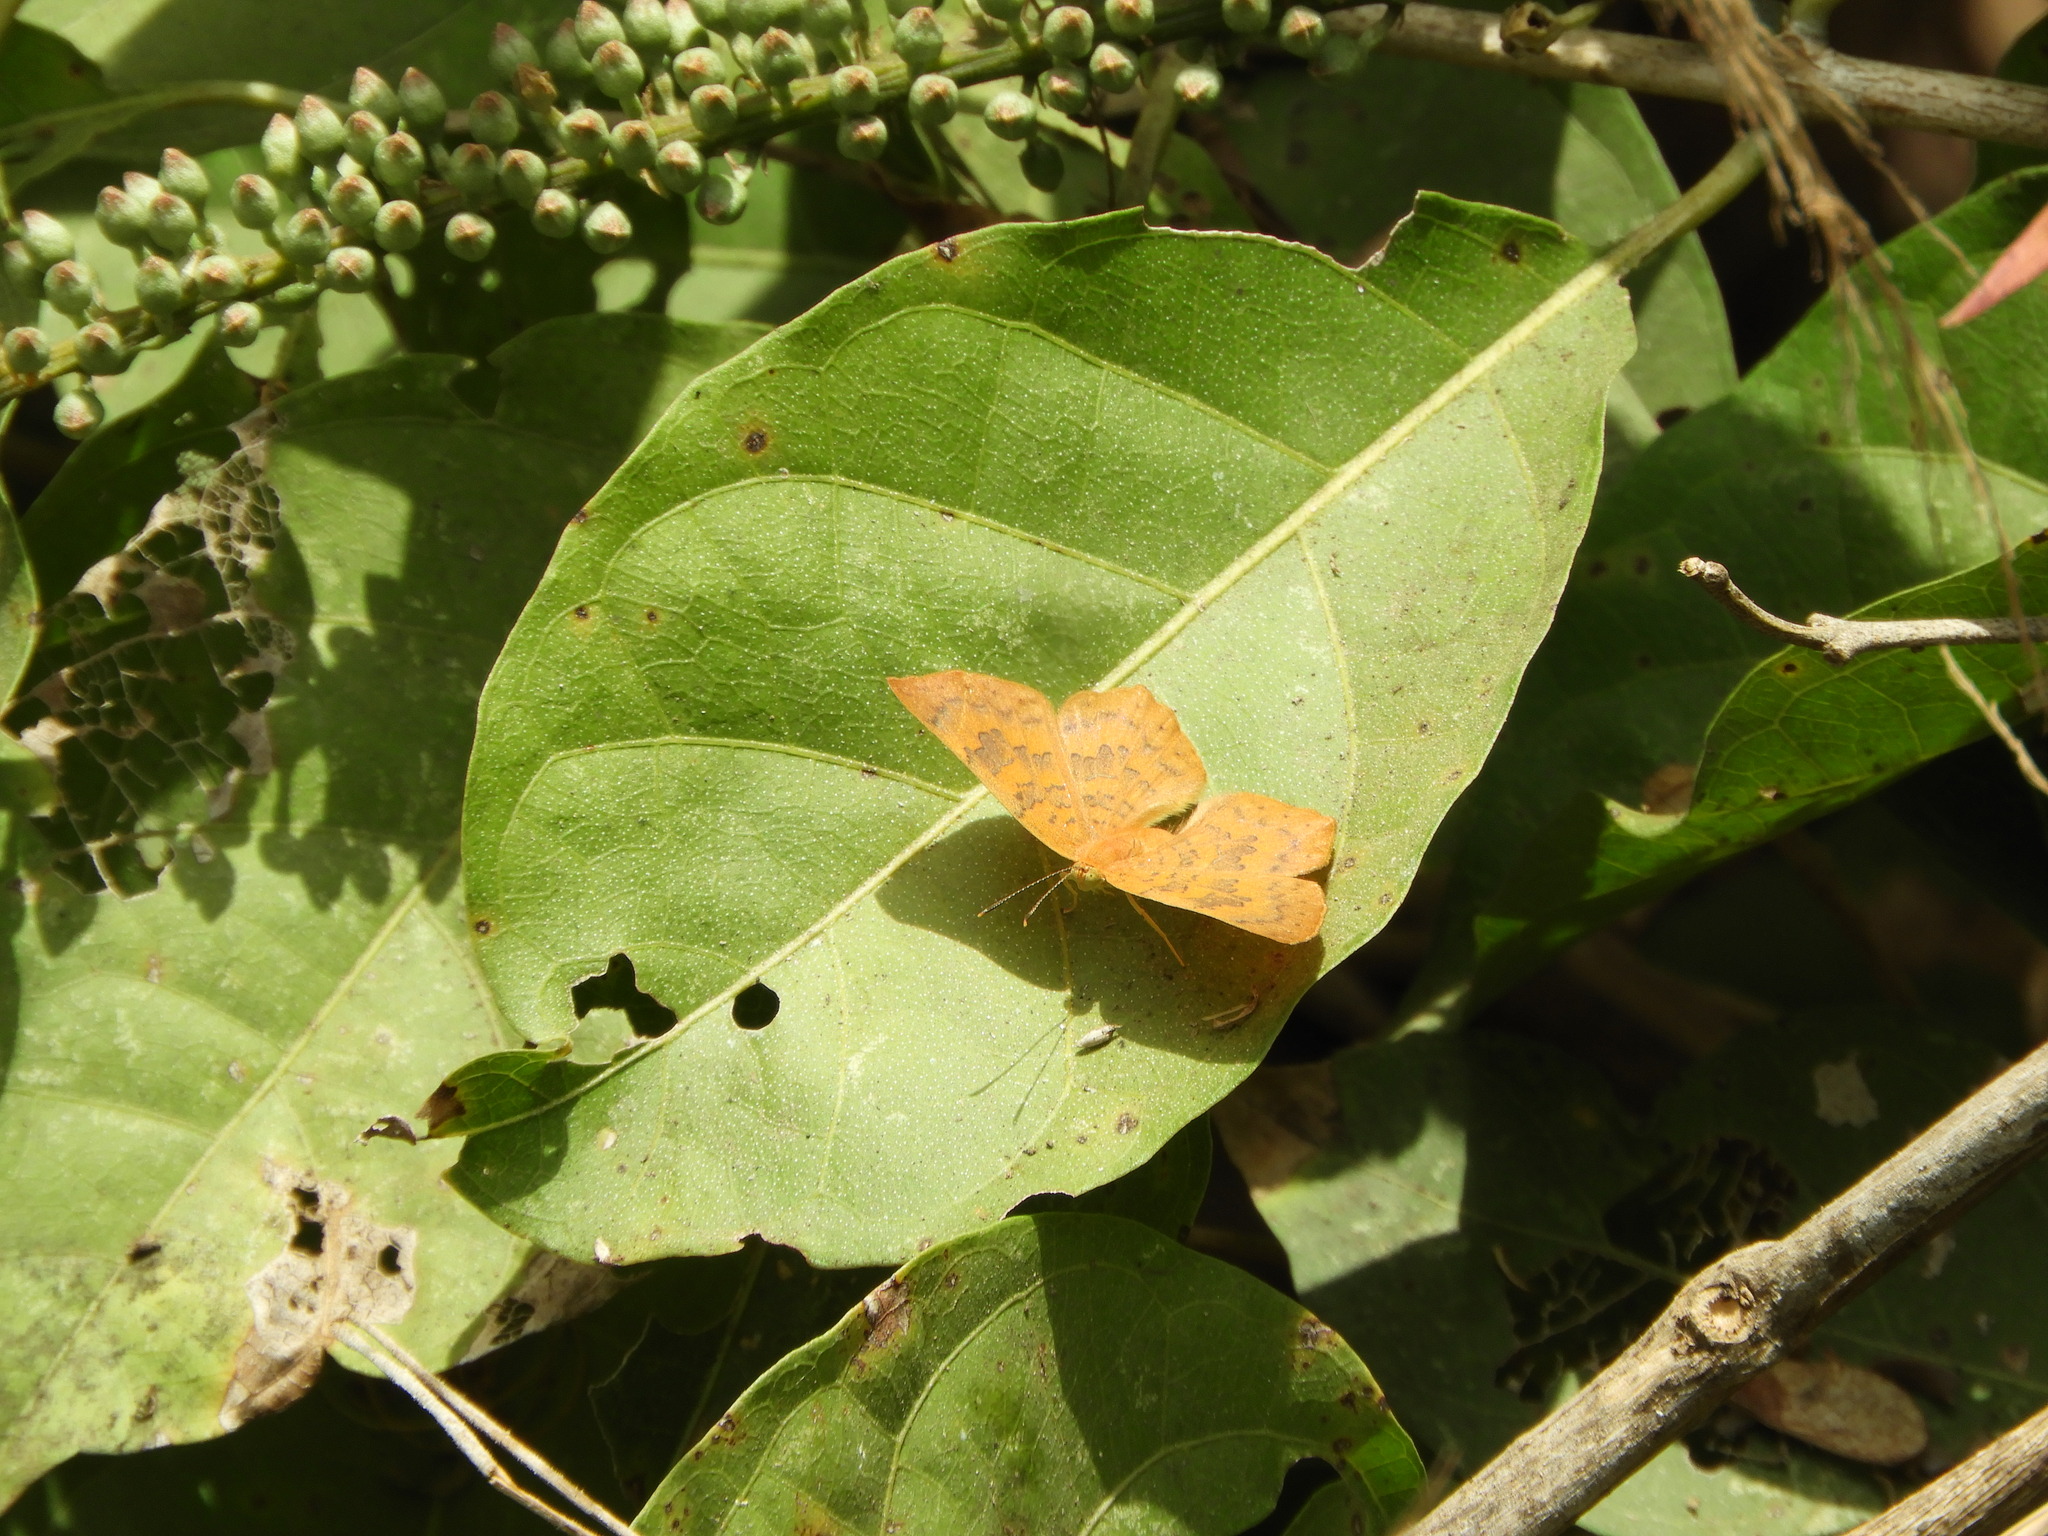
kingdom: Animalia
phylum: Arthropoda
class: Insecta
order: Lepidoptera
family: Lycaenidae
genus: Emesis
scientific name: Emesis tenedia
